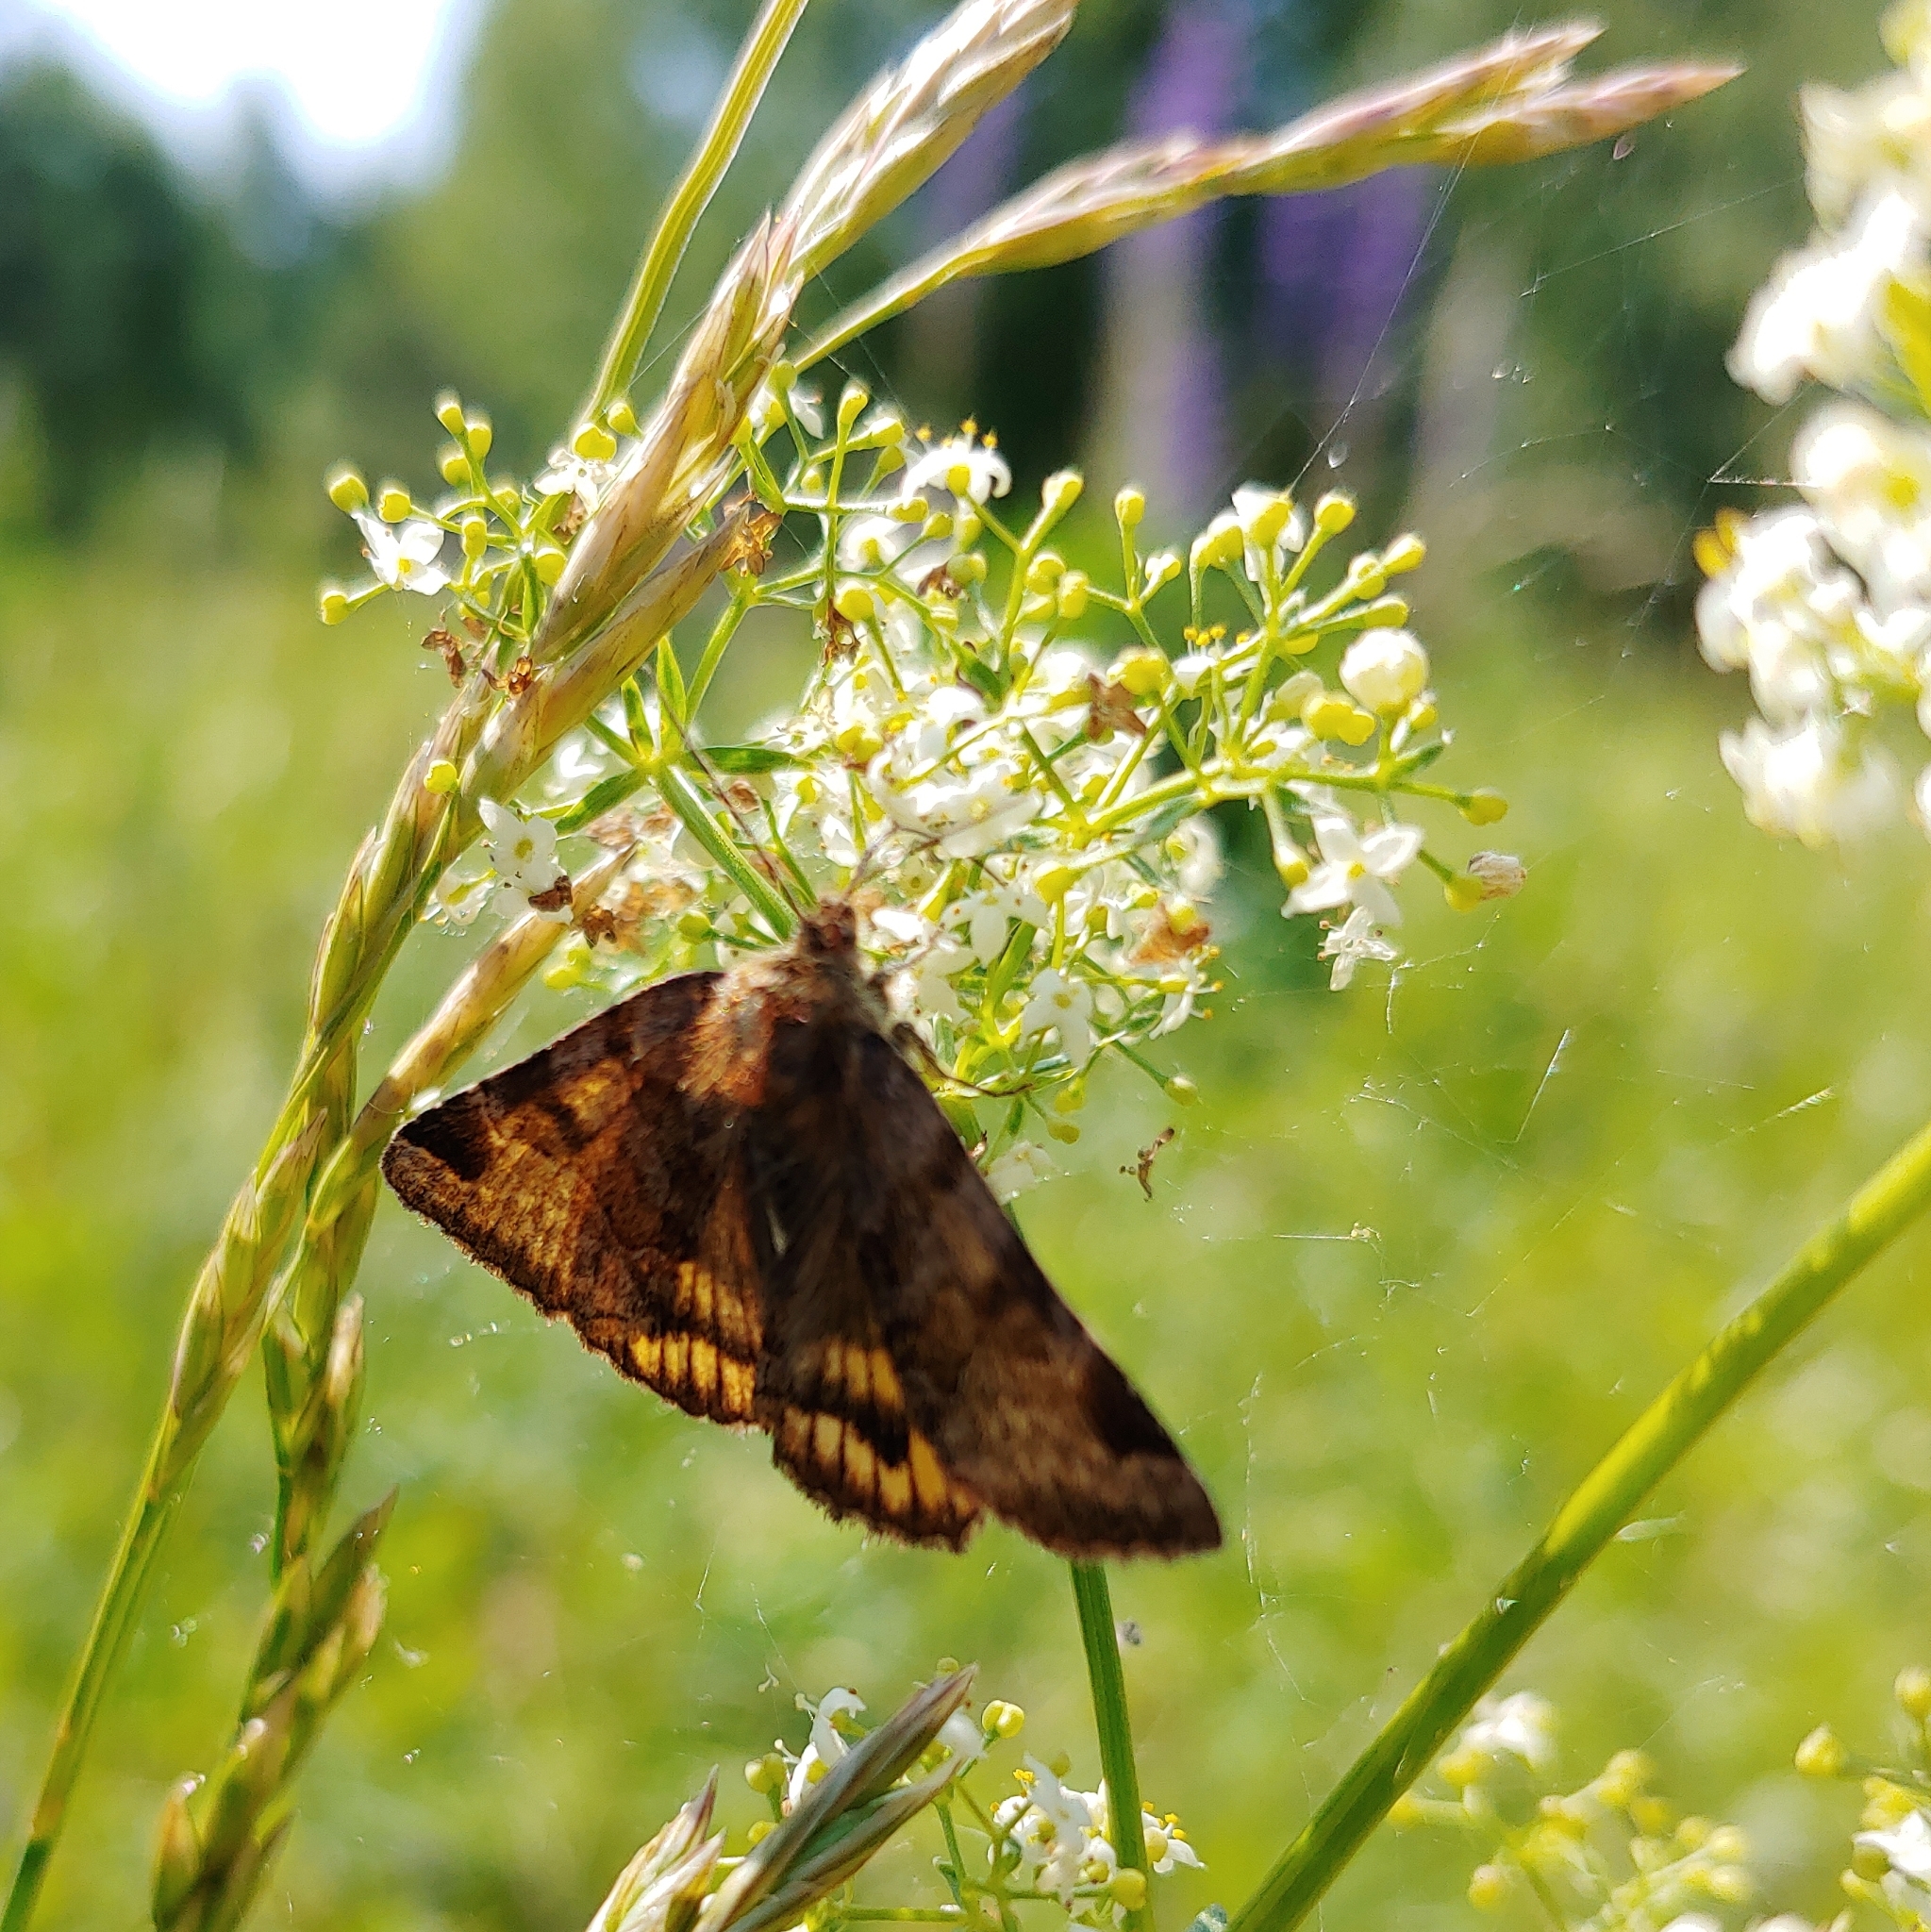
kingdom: Animalia
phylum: Arthropoda
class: Insecta
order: Lepidoptera
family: Erebidae
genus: Euclidia
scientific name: Euclidia glyphica
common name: Burnet companion
